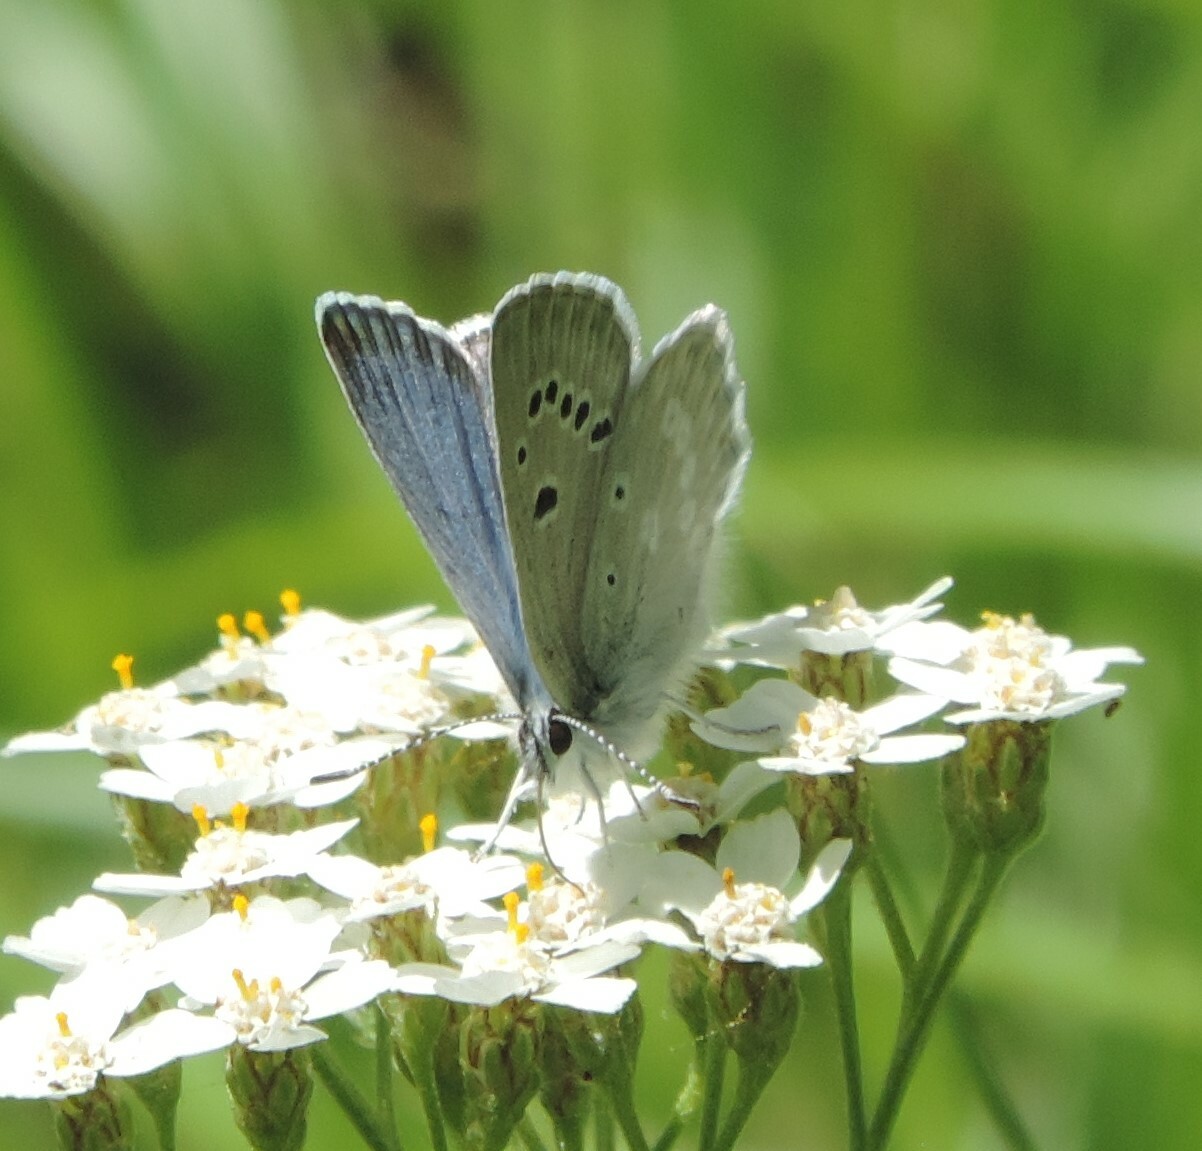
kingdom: Animalia
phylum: Arthropoda
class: Insecta
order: Lepidoptera
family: Lycaenidae
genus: Icaricia
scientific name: Icaricia icarioides
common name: Boisduval's blue
